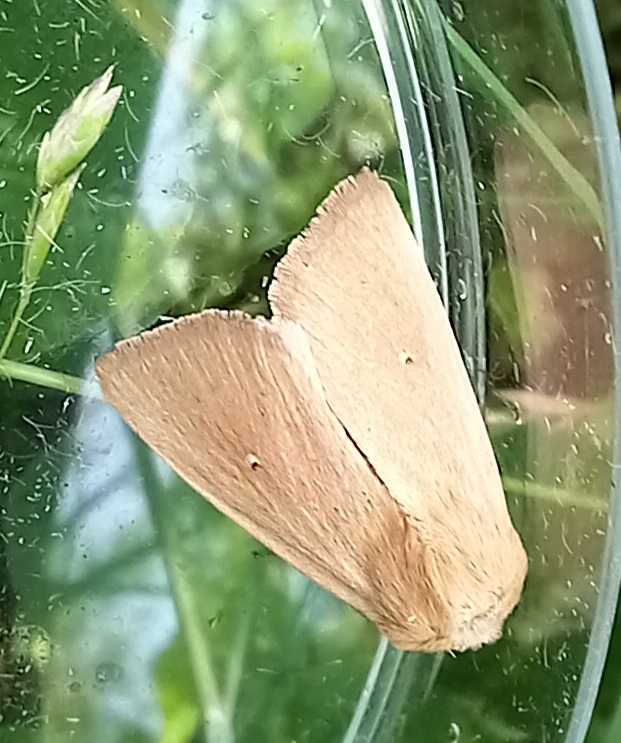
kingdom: Animalia
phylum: Arthropoda
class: Insecta
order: Lepidoptera
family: Noctuidae
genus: Mythimna
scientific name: Mythimna sicula
